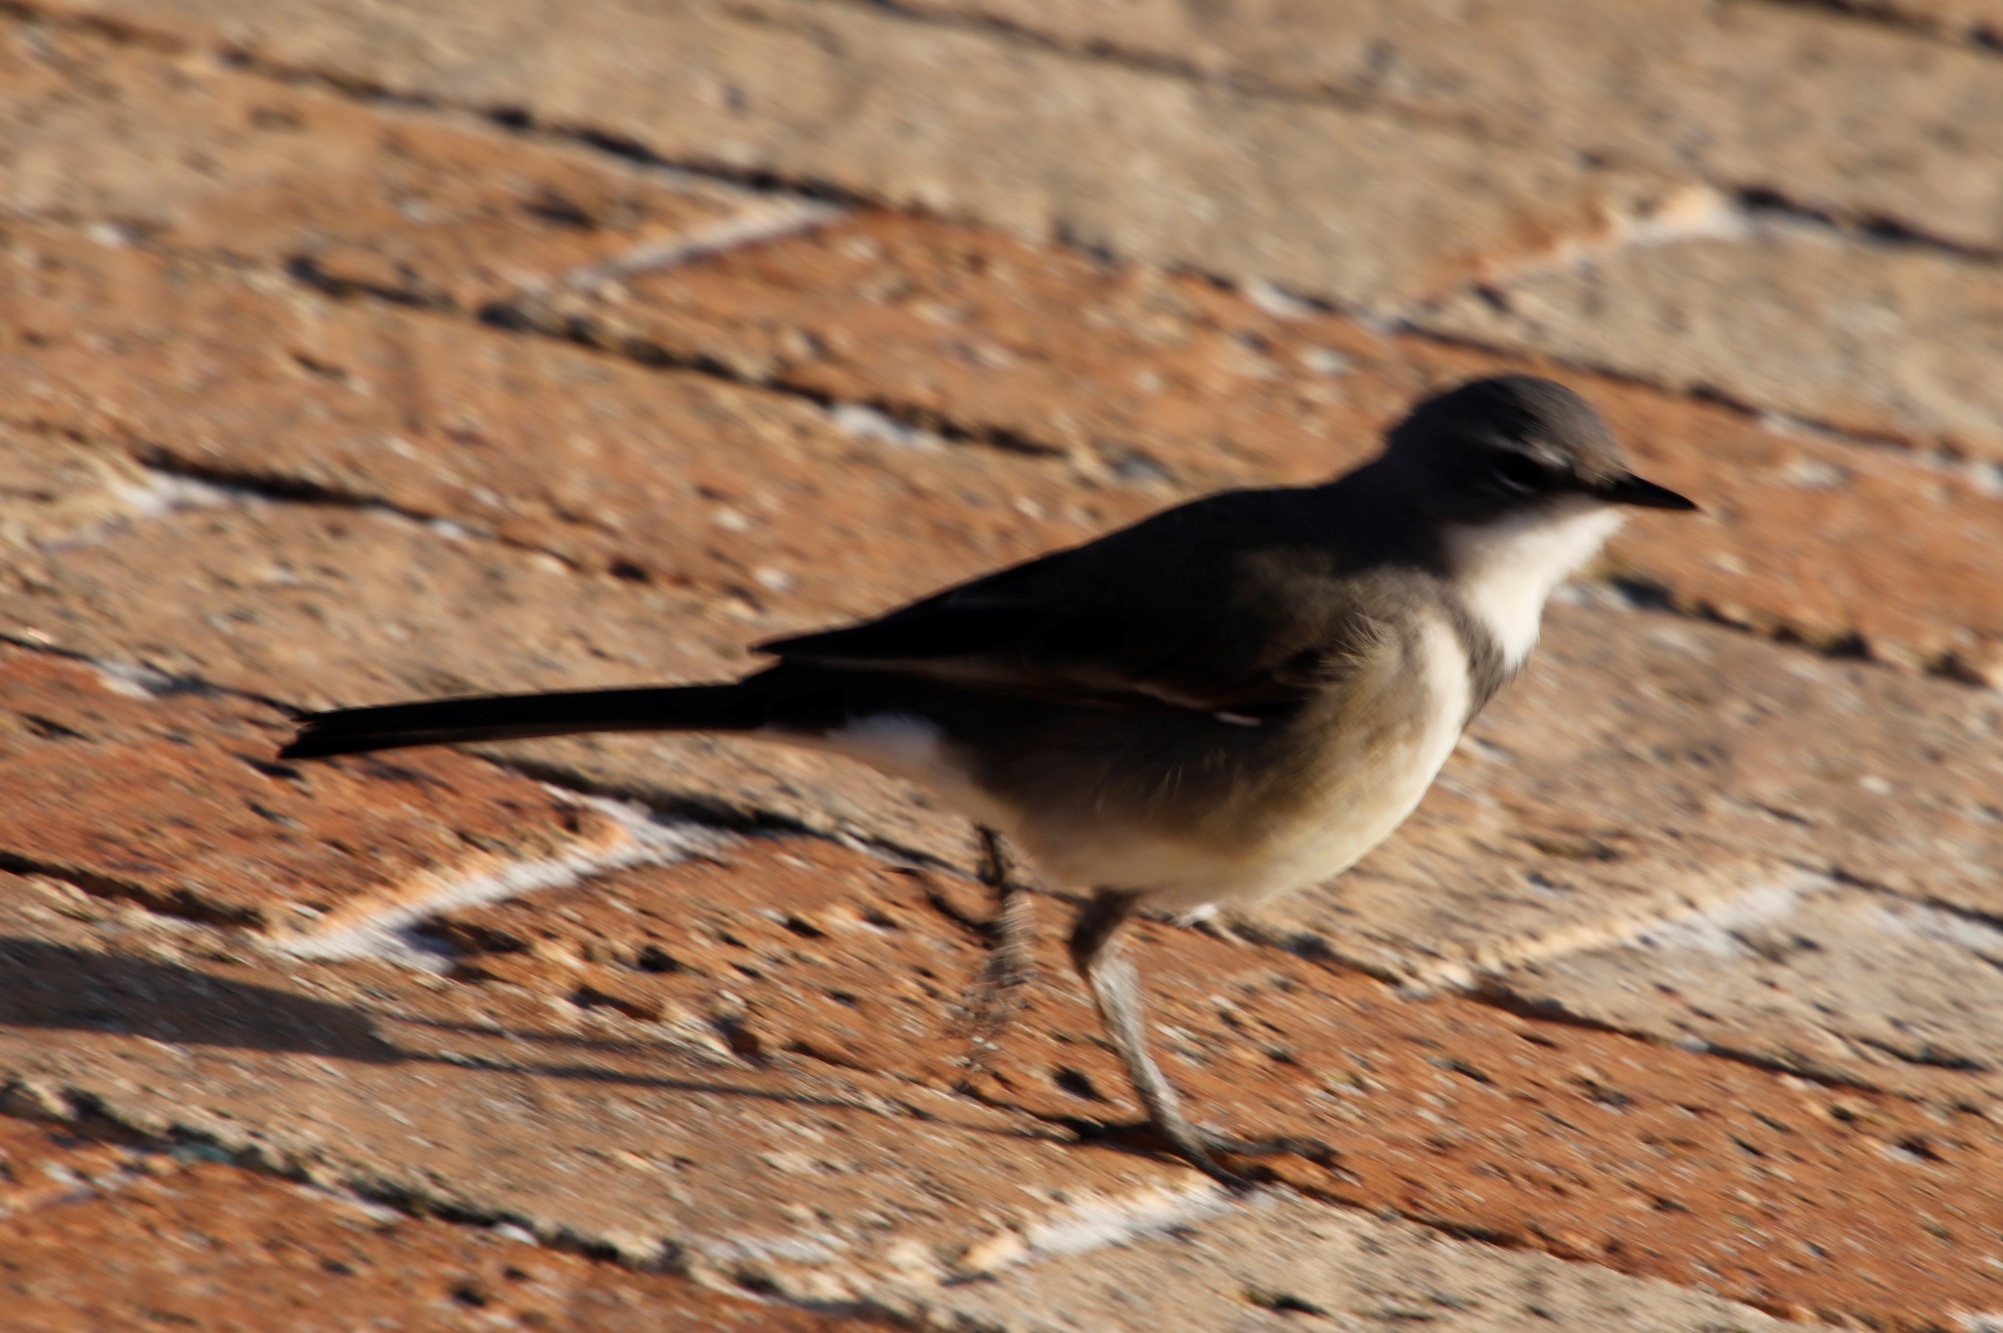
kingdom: Animalia
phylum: Chordata
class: Aves
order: Passeriformes
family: Motacillidae
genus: Motacilla
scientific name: Motacilla capensis
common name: Cape wagtail
